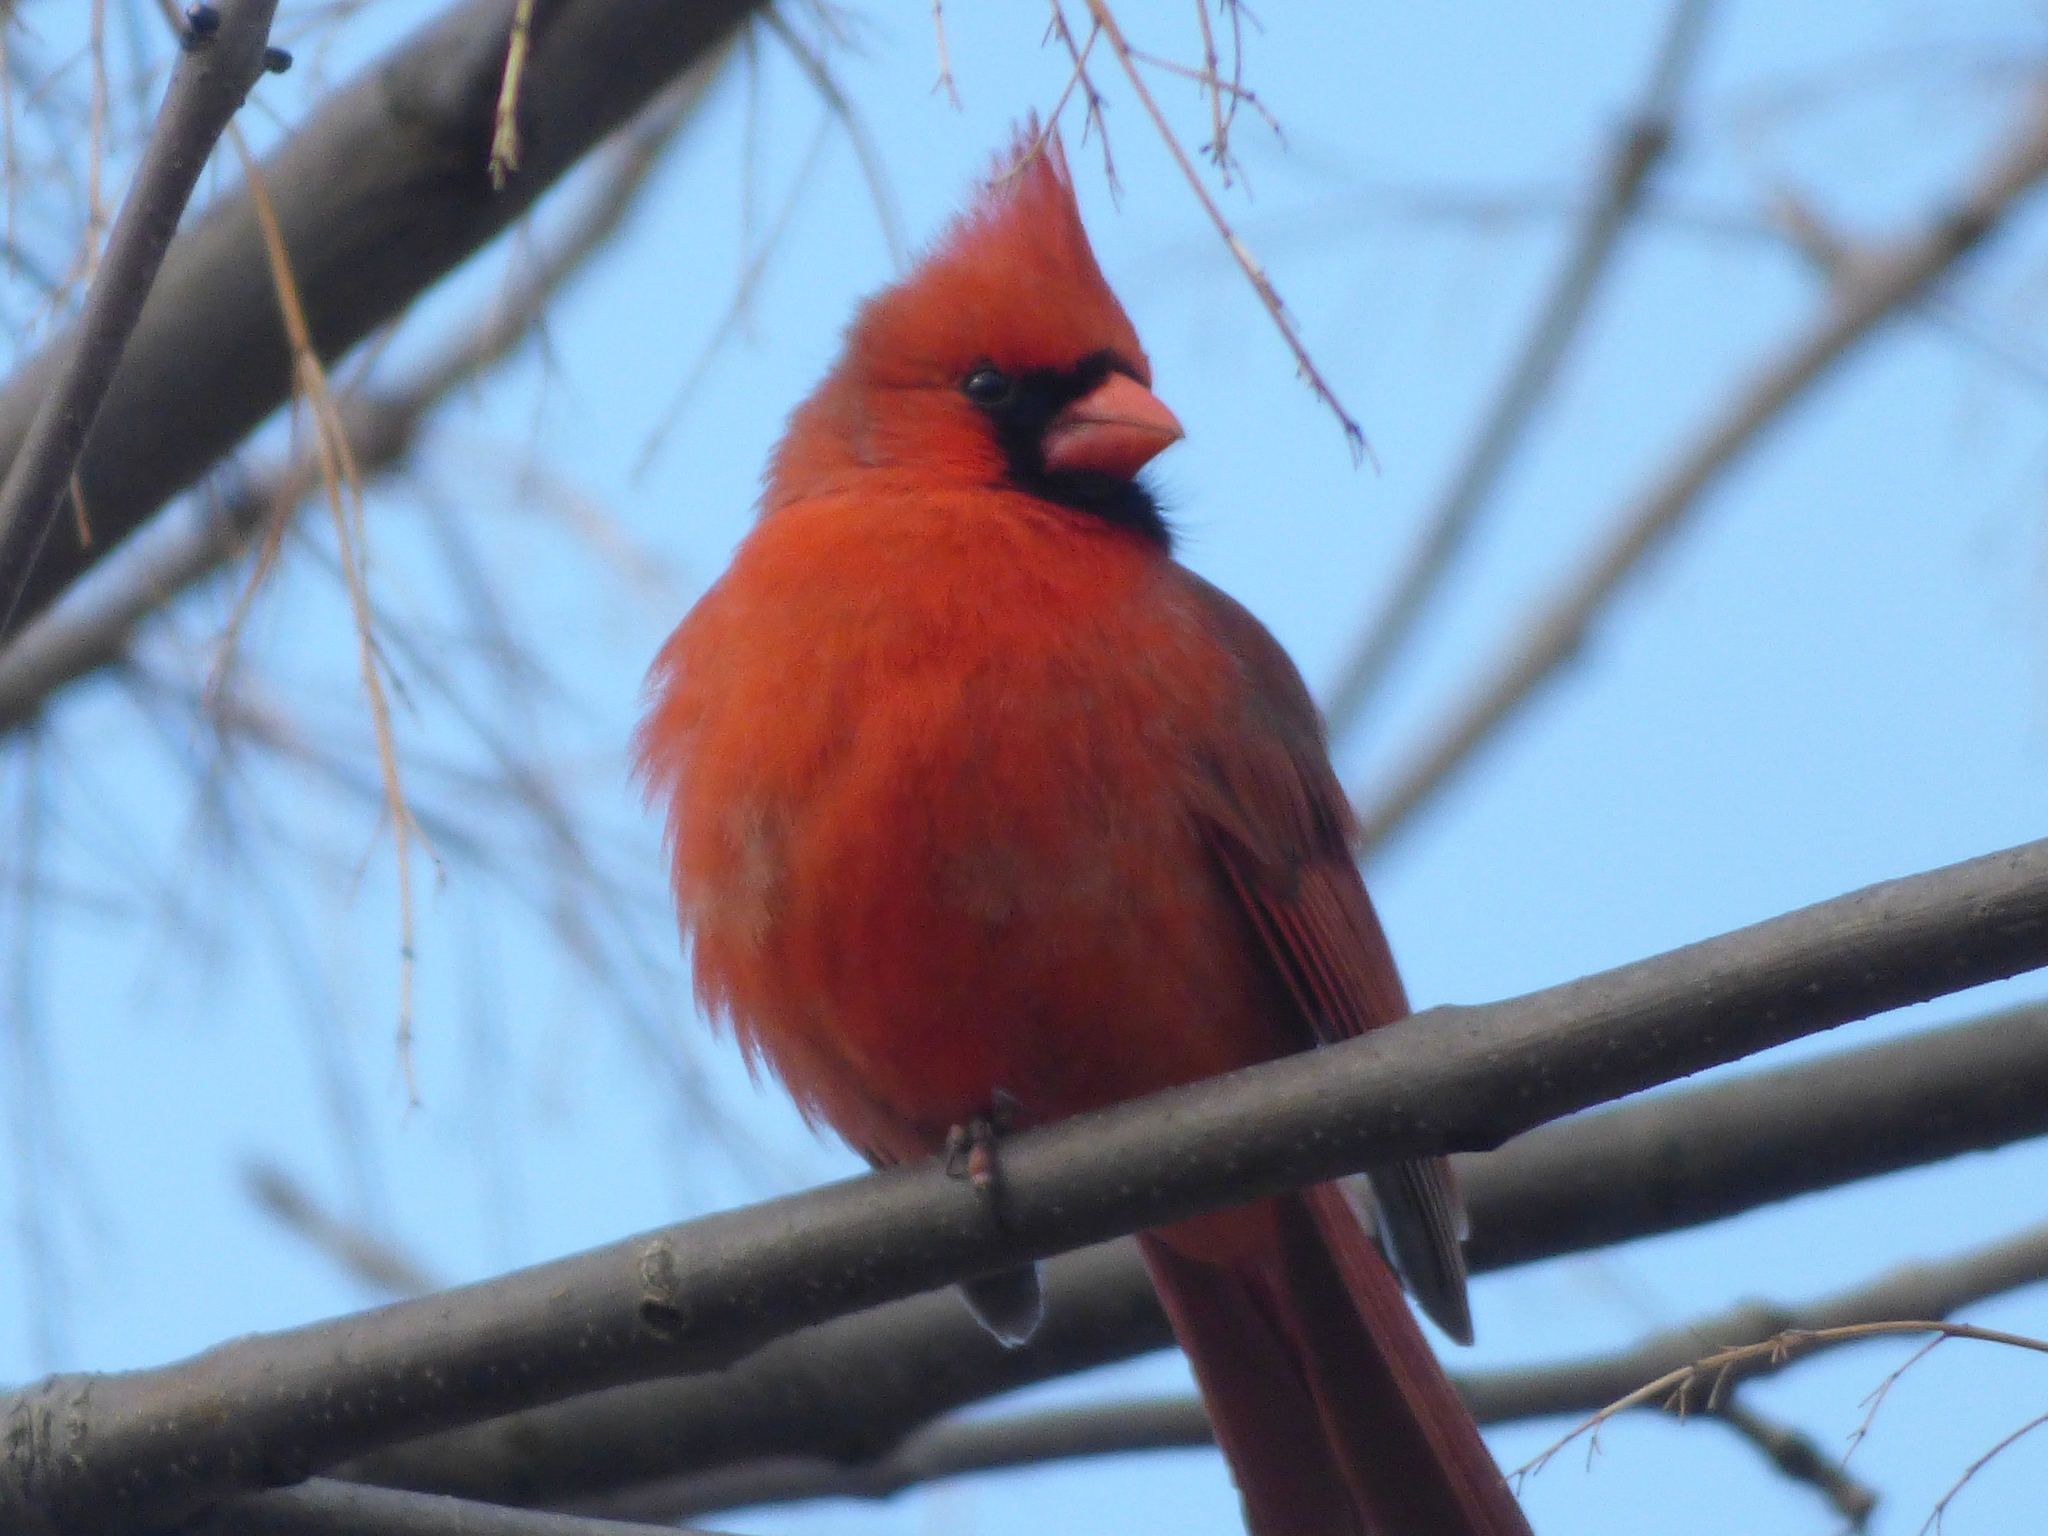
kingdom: Animalia
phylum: Chordata
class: Aves
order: Passeriformes
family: Cardinalidae
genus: Cardinalis
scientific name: Cardinalis cardinalis
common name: Northern cardinal
